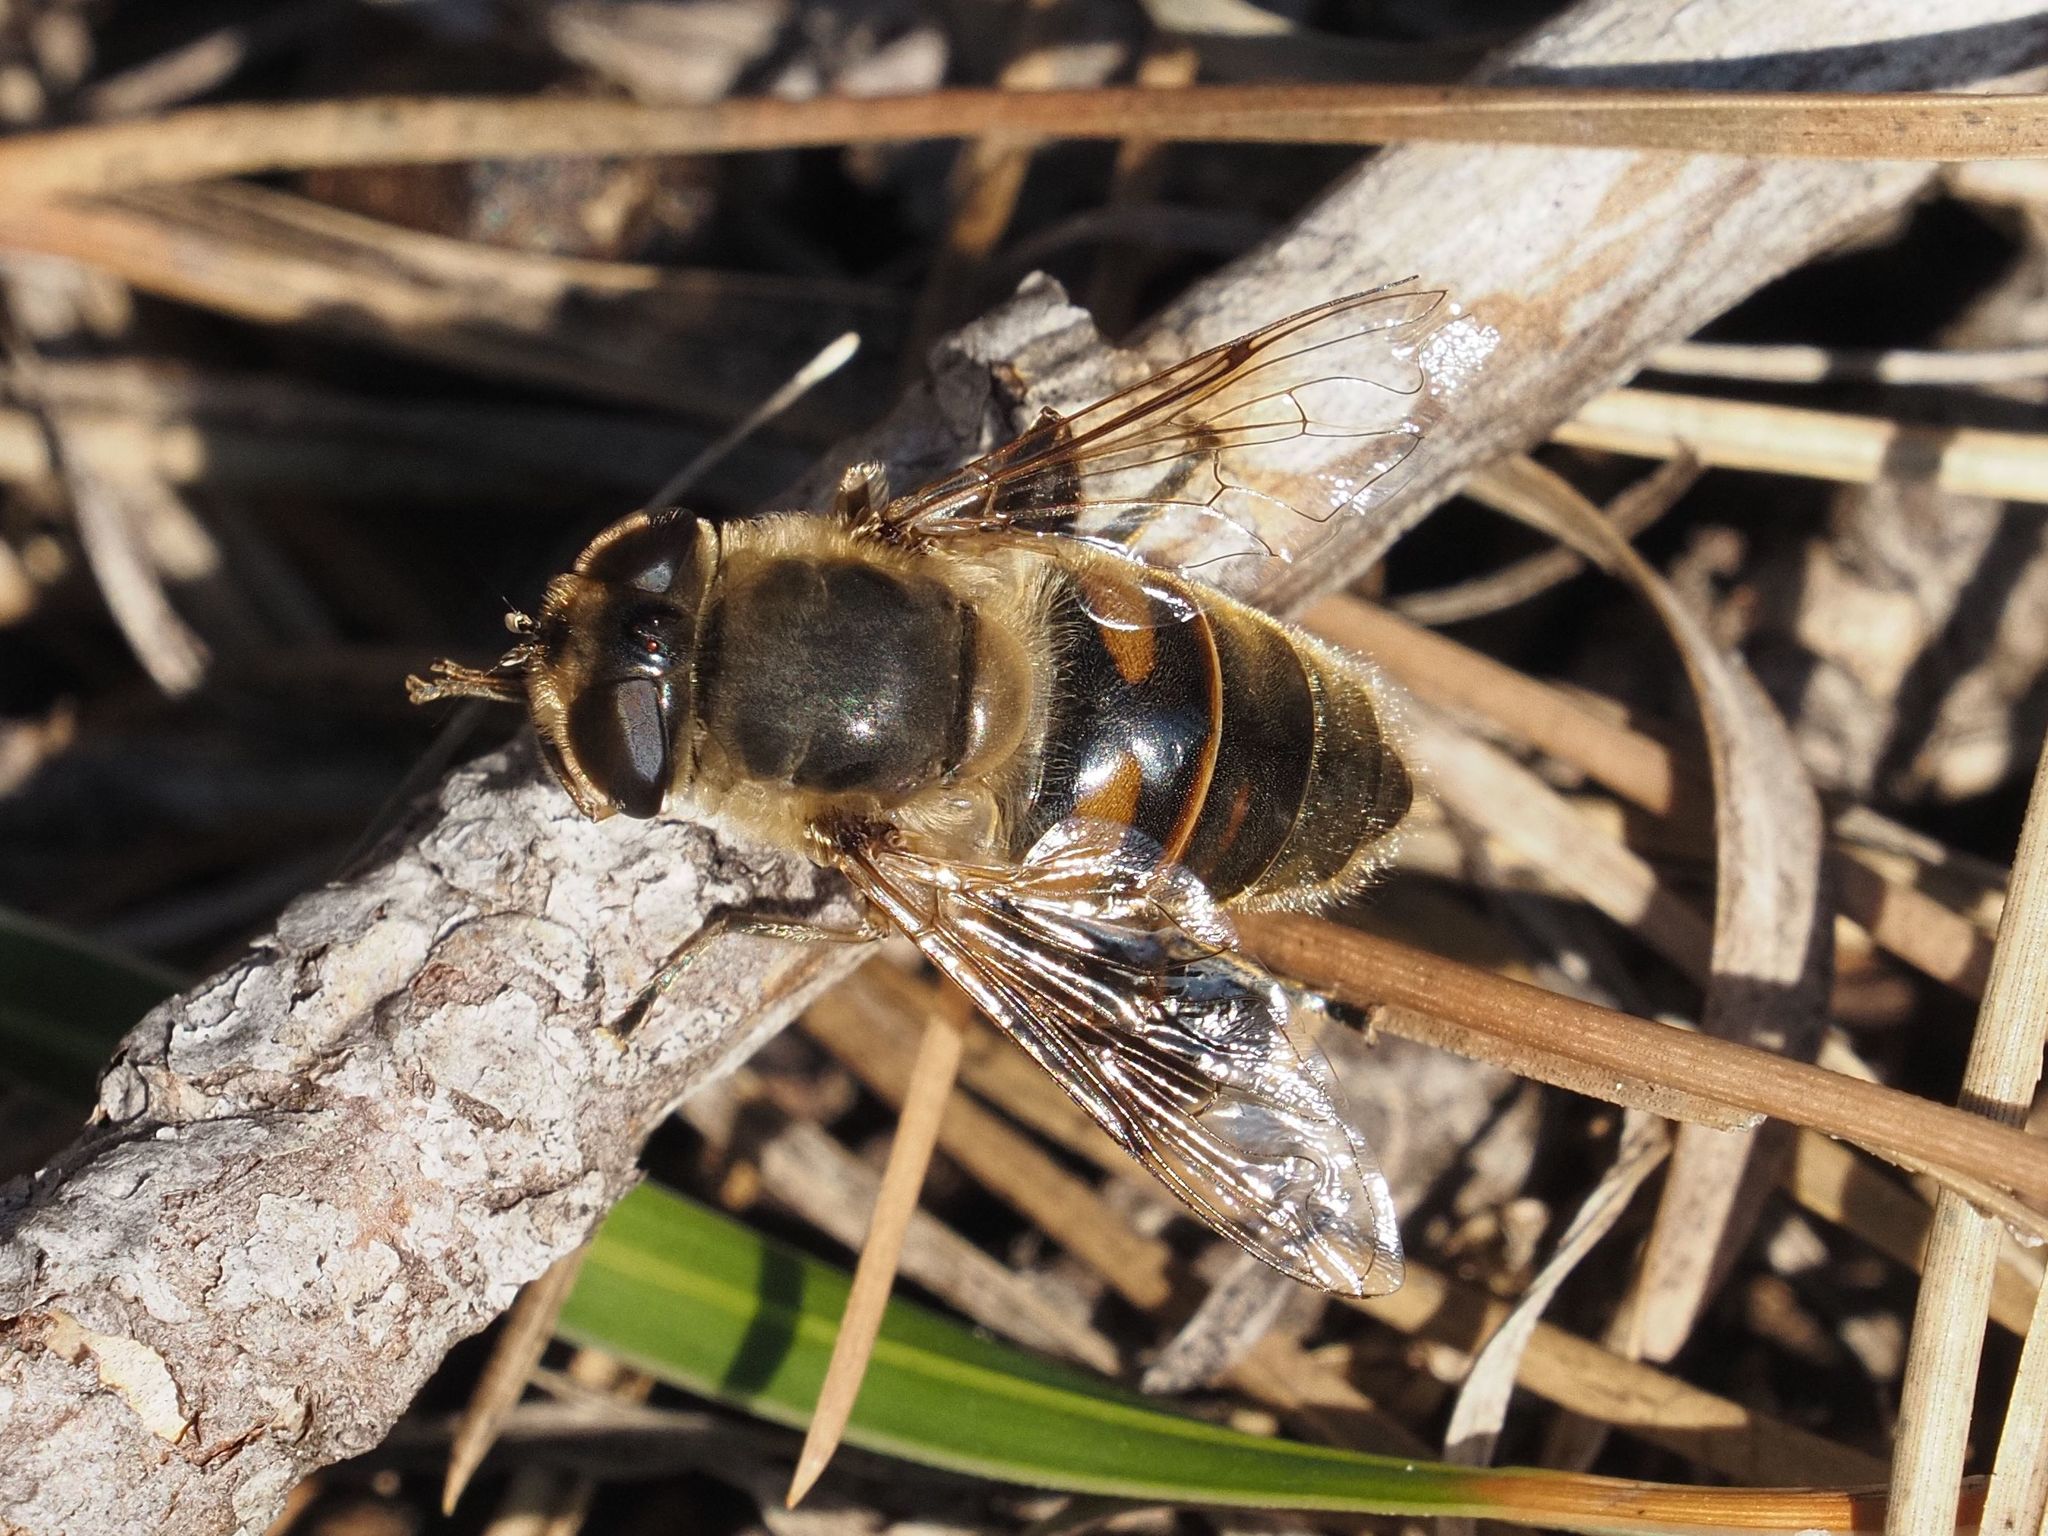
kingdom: Animalia
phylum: Arthropoda
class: Insecta
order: Diptera
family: Syrphidae
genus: Eristalis
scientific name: Eristalis tenax
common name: Drone fly
